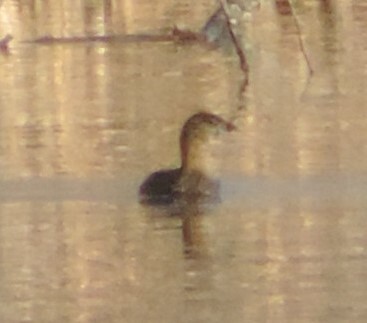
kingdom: Animalia
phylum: Chordata
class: Aves
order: Podicipediformes
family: Podicipedidae
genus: Podilymbus
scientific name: Podilymbus podiceps
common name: Pied-billed grebe
